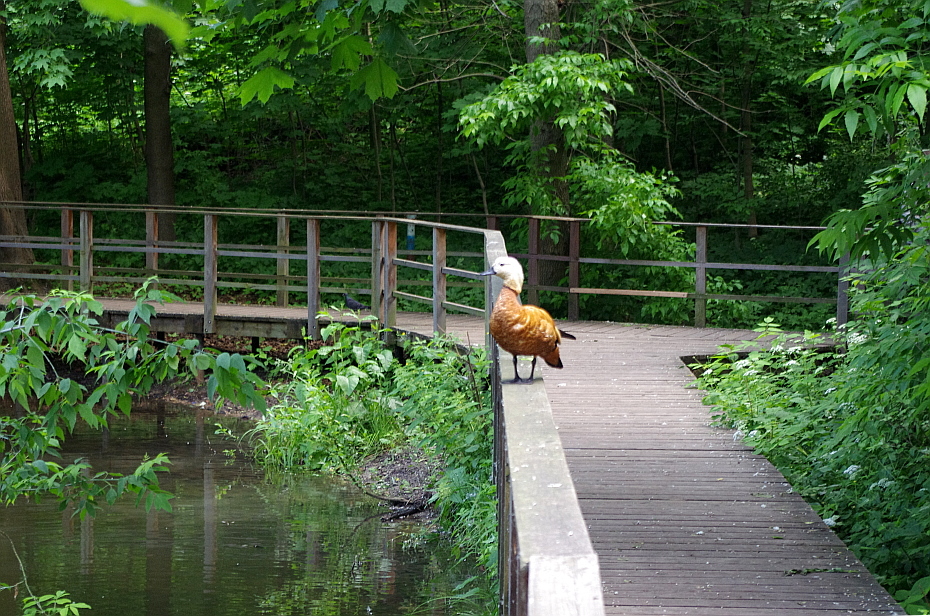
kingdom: Animalia
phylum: Chordata
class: Aves
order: Anseriformes
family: Anatidae
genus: Tadorna
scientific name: Tadorna ferruginea
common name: Ruddy shelduck
